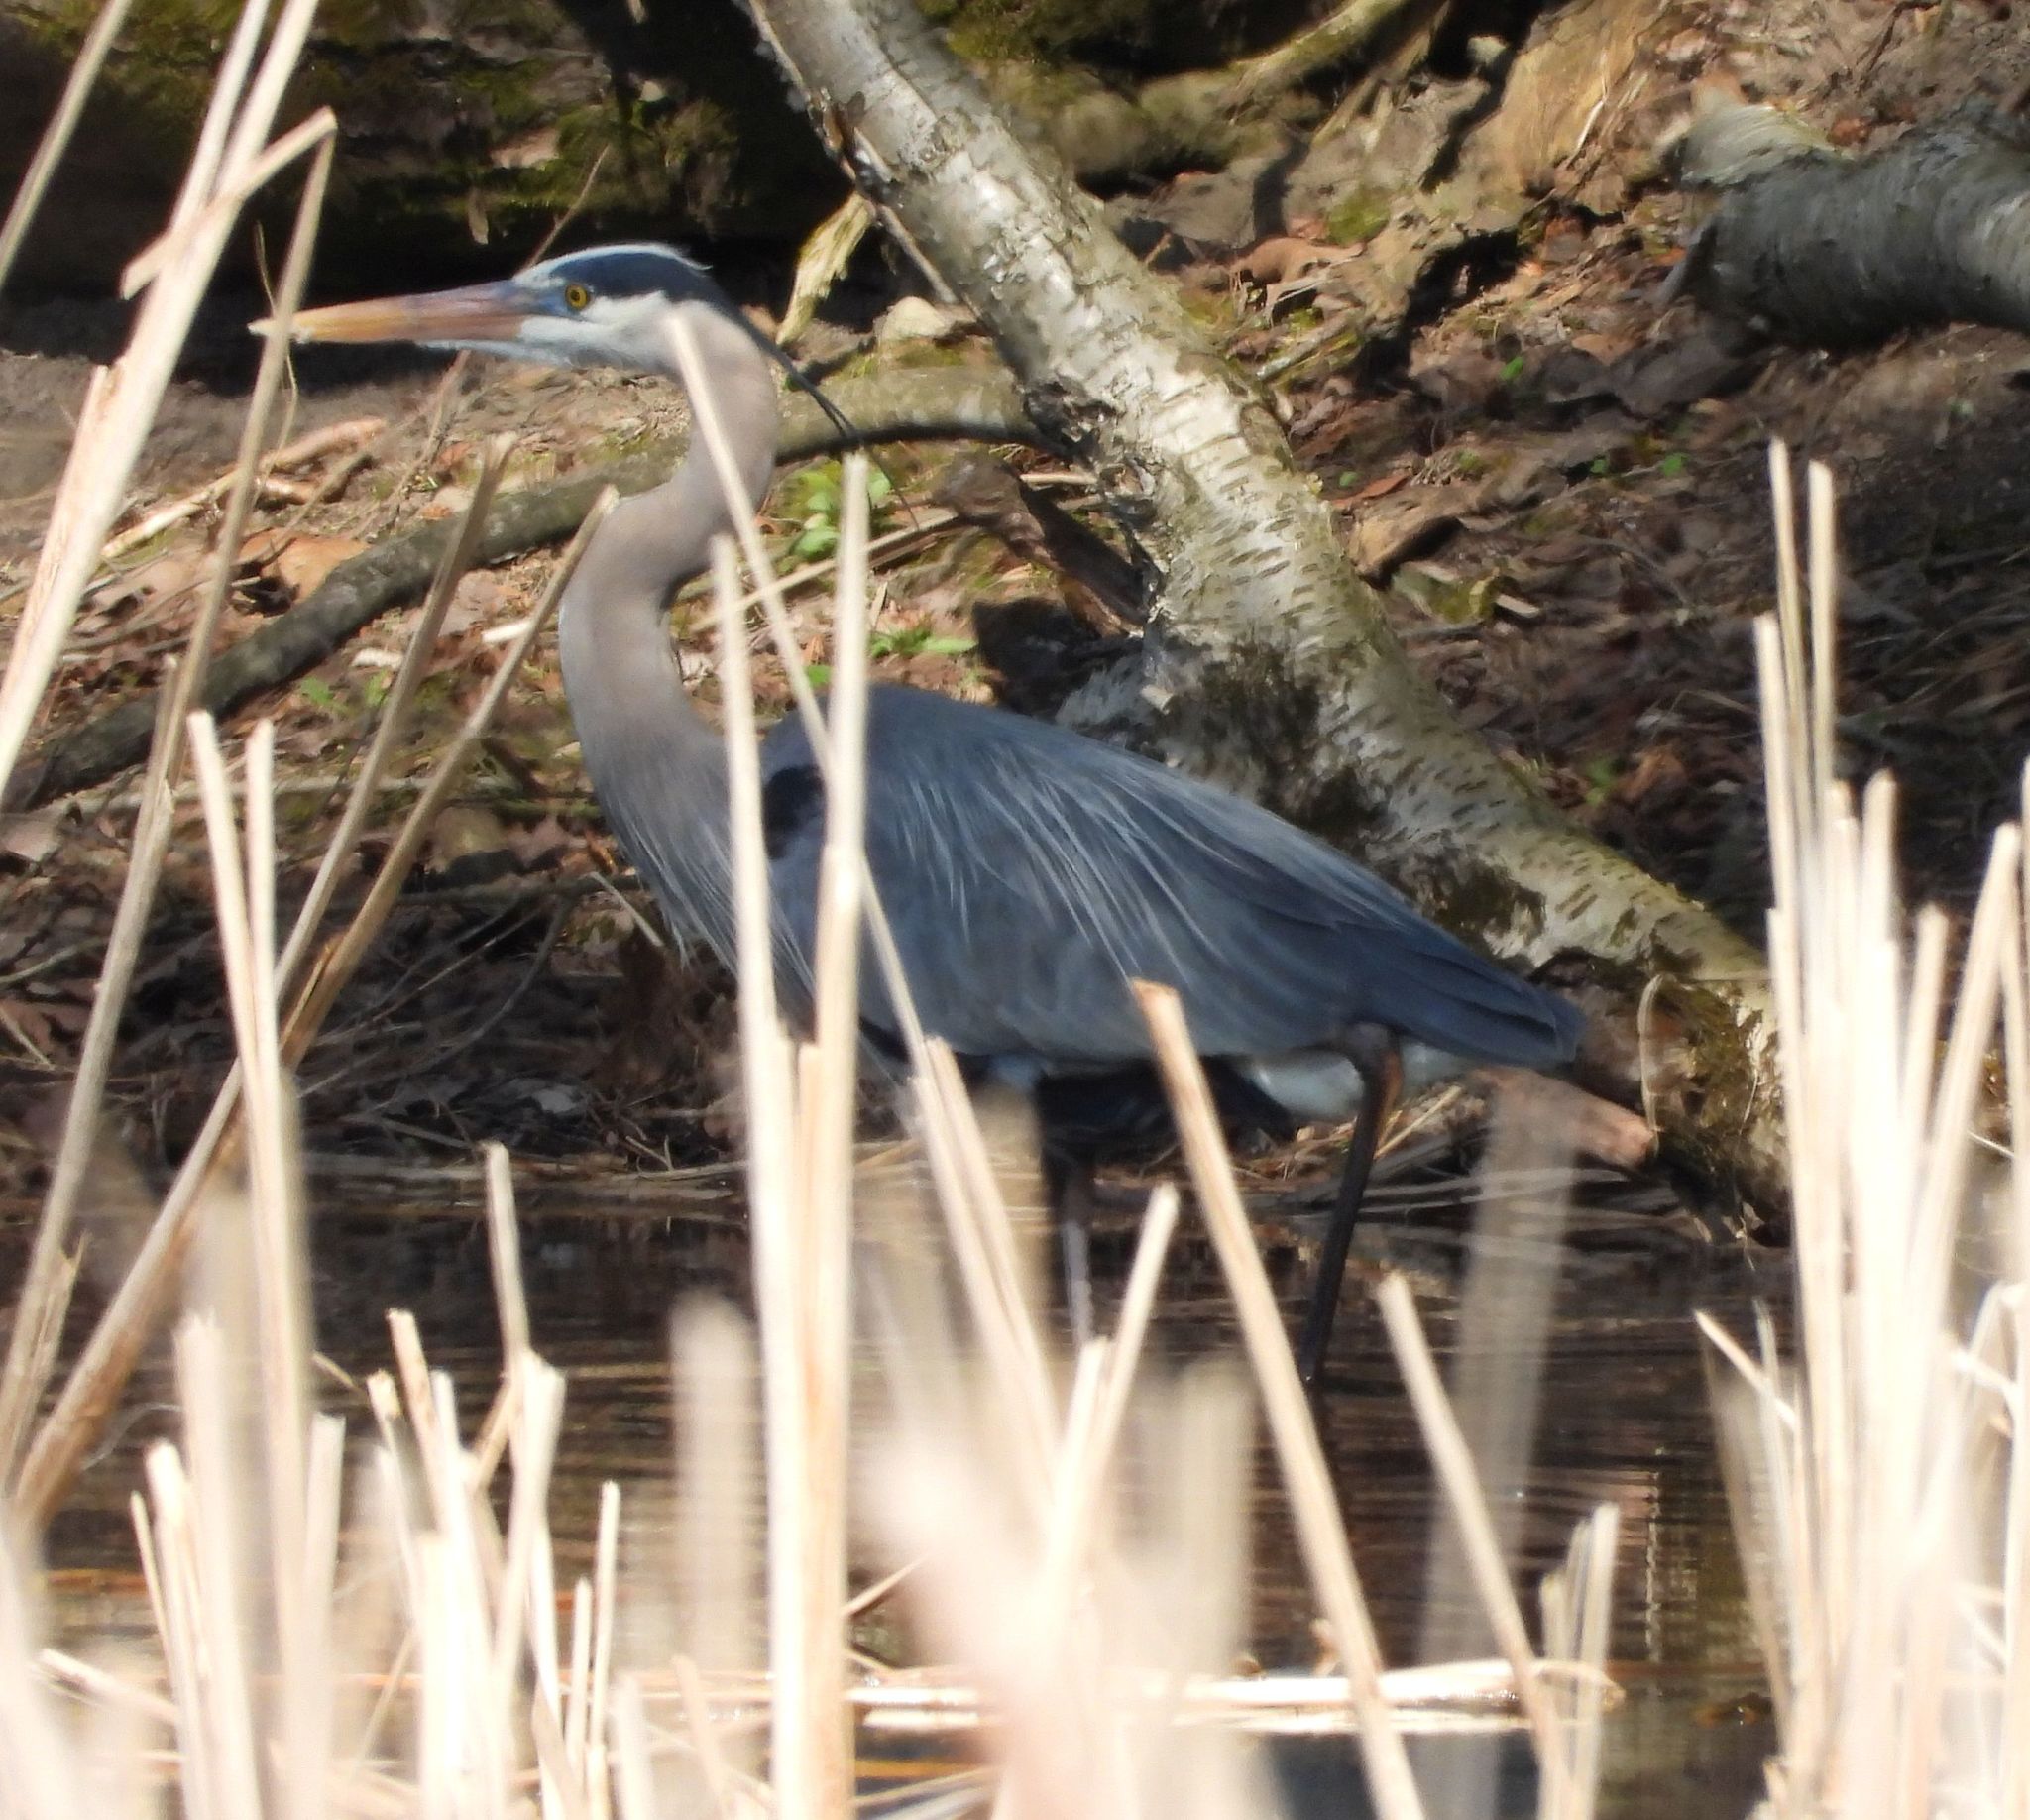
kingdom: Animalia
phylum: Chordata
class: Aves
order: Pelecaniformes
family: Ardeidae
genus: Ardea
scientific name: Ardea herodias
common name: Great blue heron
